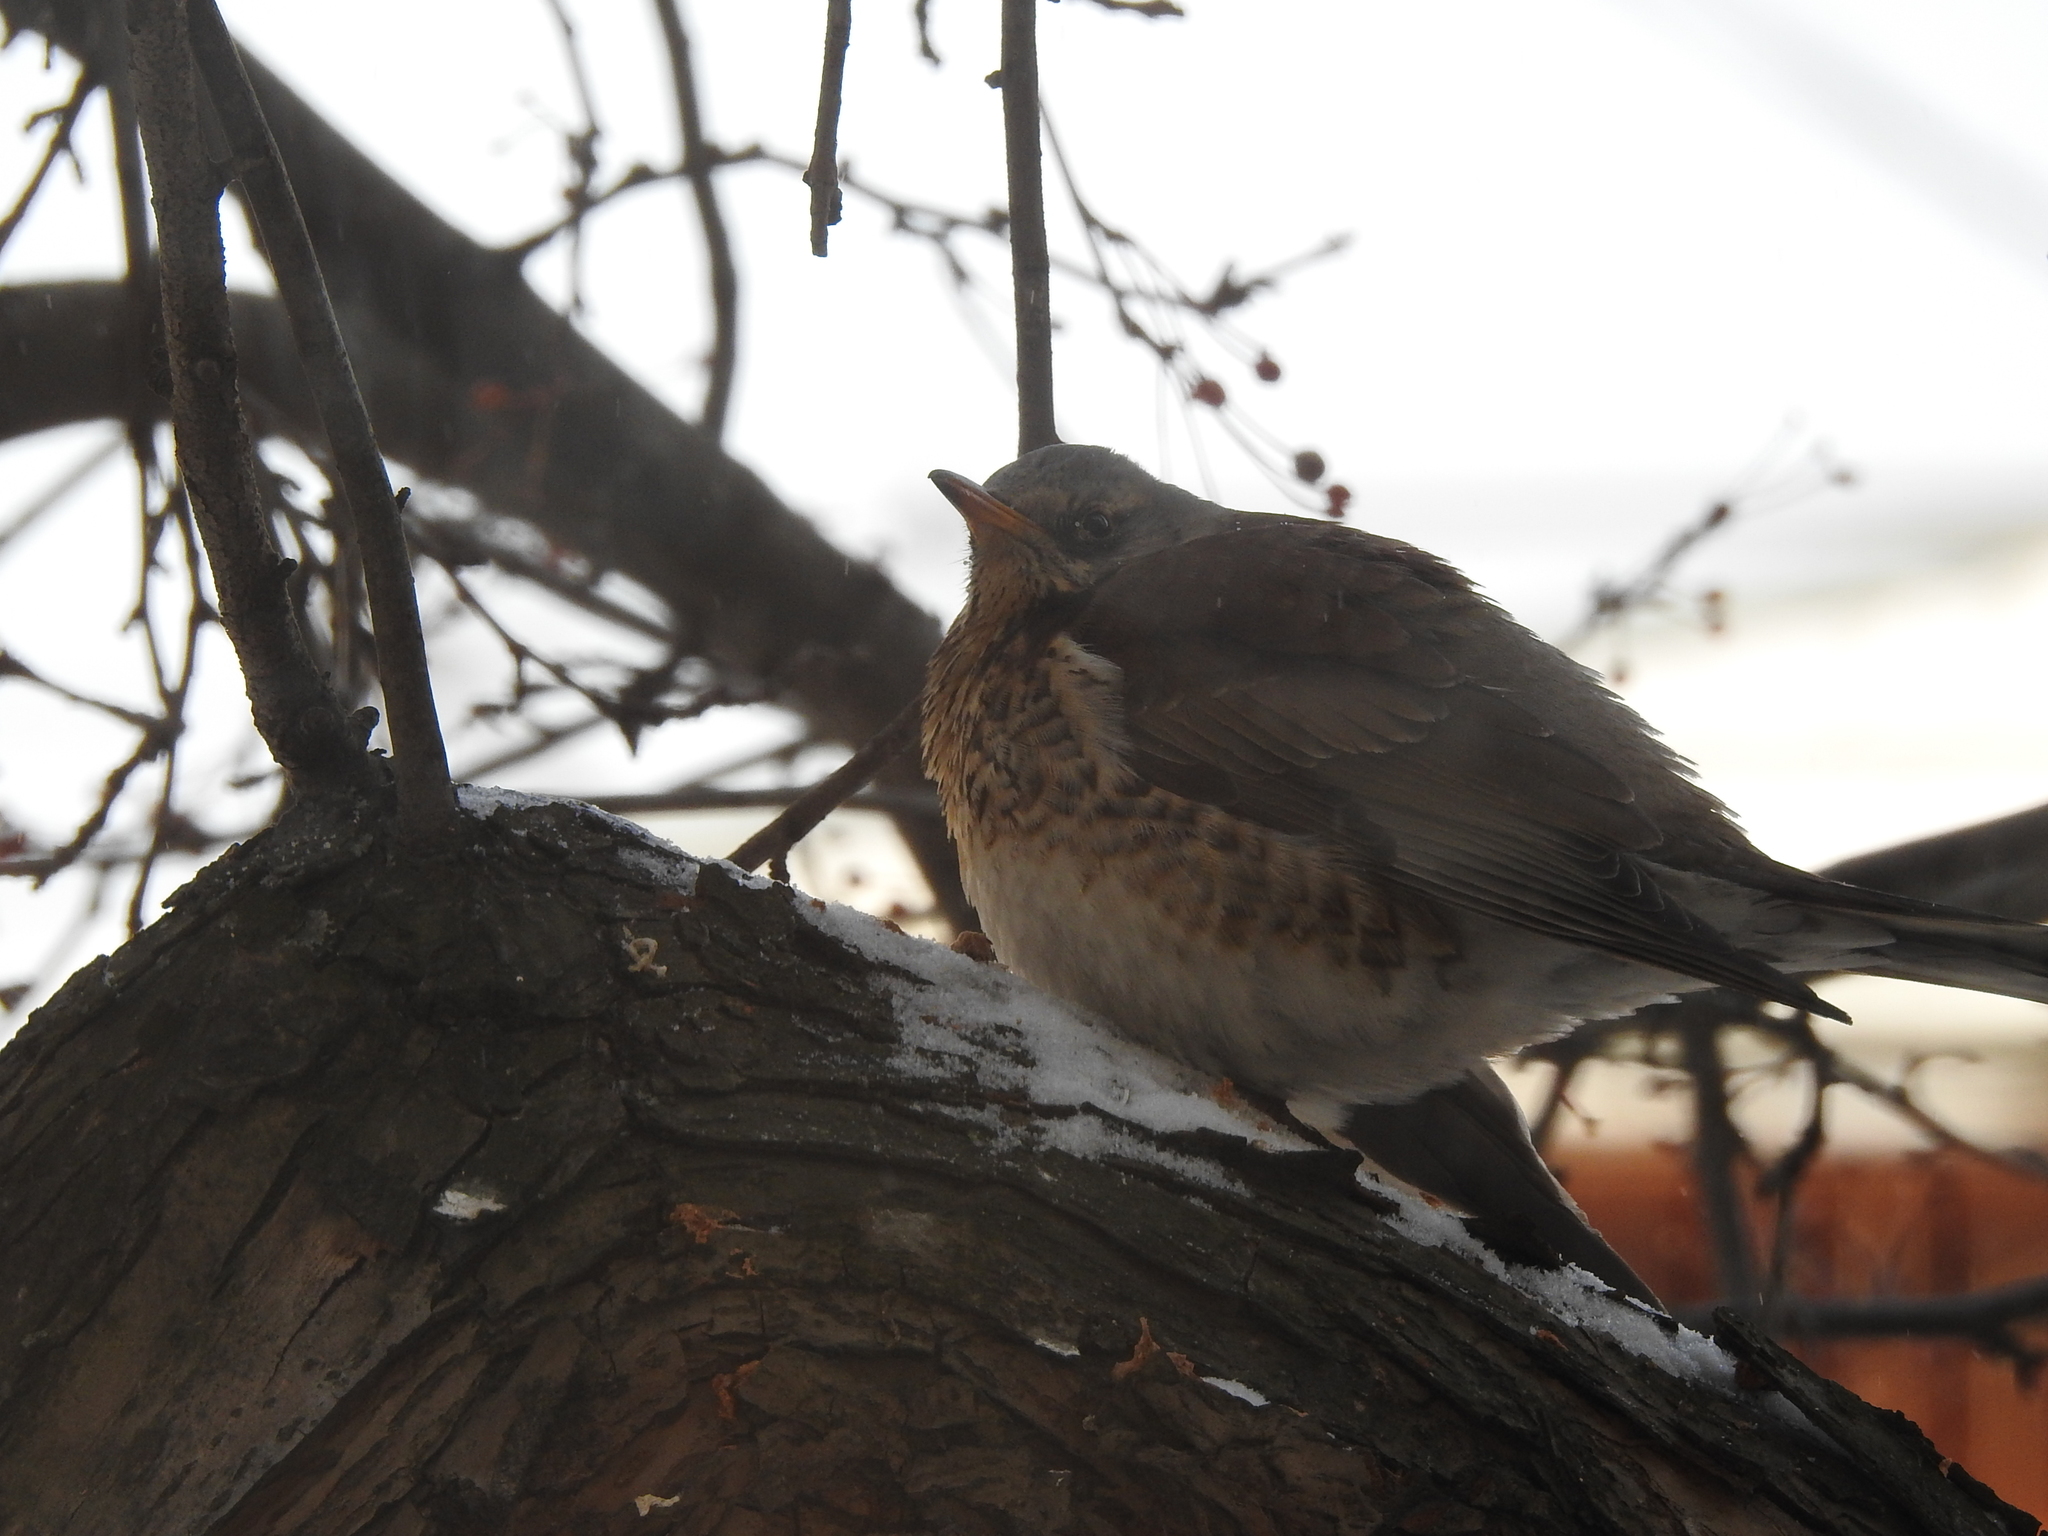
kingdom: Animalia
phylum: Chordata
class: Aves
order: Passeriformes
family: Turdidae
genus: Turdus
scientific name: Turdus pilaris
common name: Fieldfare
